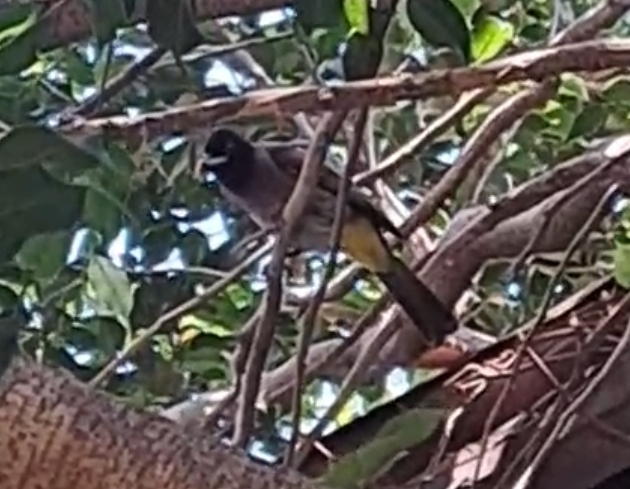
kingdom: Animalia
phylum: Chordata
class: Aves
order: Passeriformes
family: Pycnonotidae
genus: Pycnonotus
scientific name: Pycnonotus xanthopygos
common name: White-spectacled bulbul
